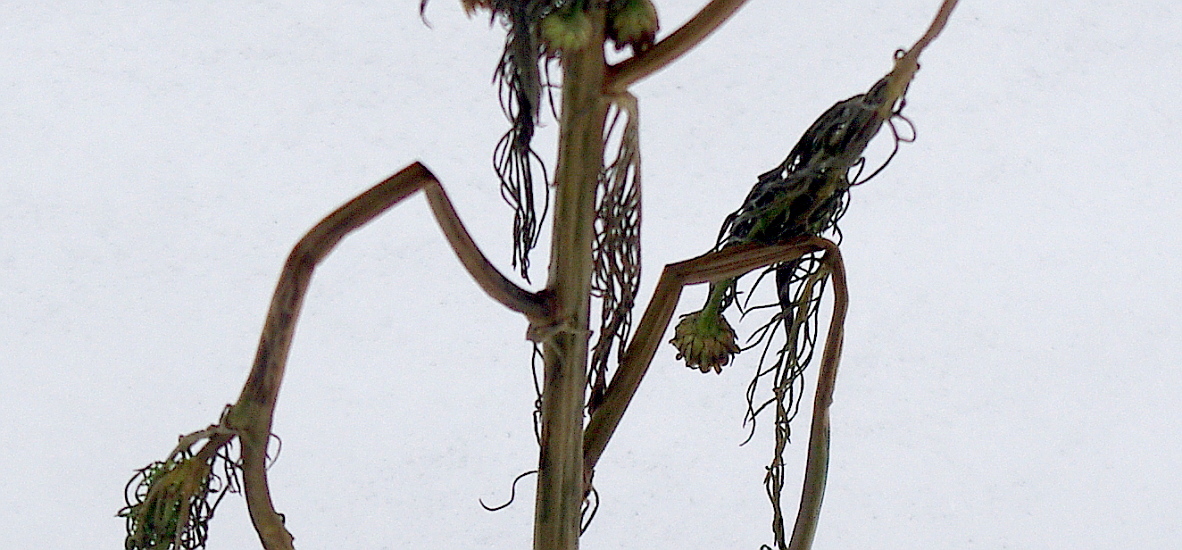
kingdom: Plantae
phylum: Tracheophyta
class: Magnoliopsida
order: Asterales
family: Asteraceae
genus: Tripleurospermum
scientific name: Tripleurospermum inodorum
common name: Scentless mayweed
